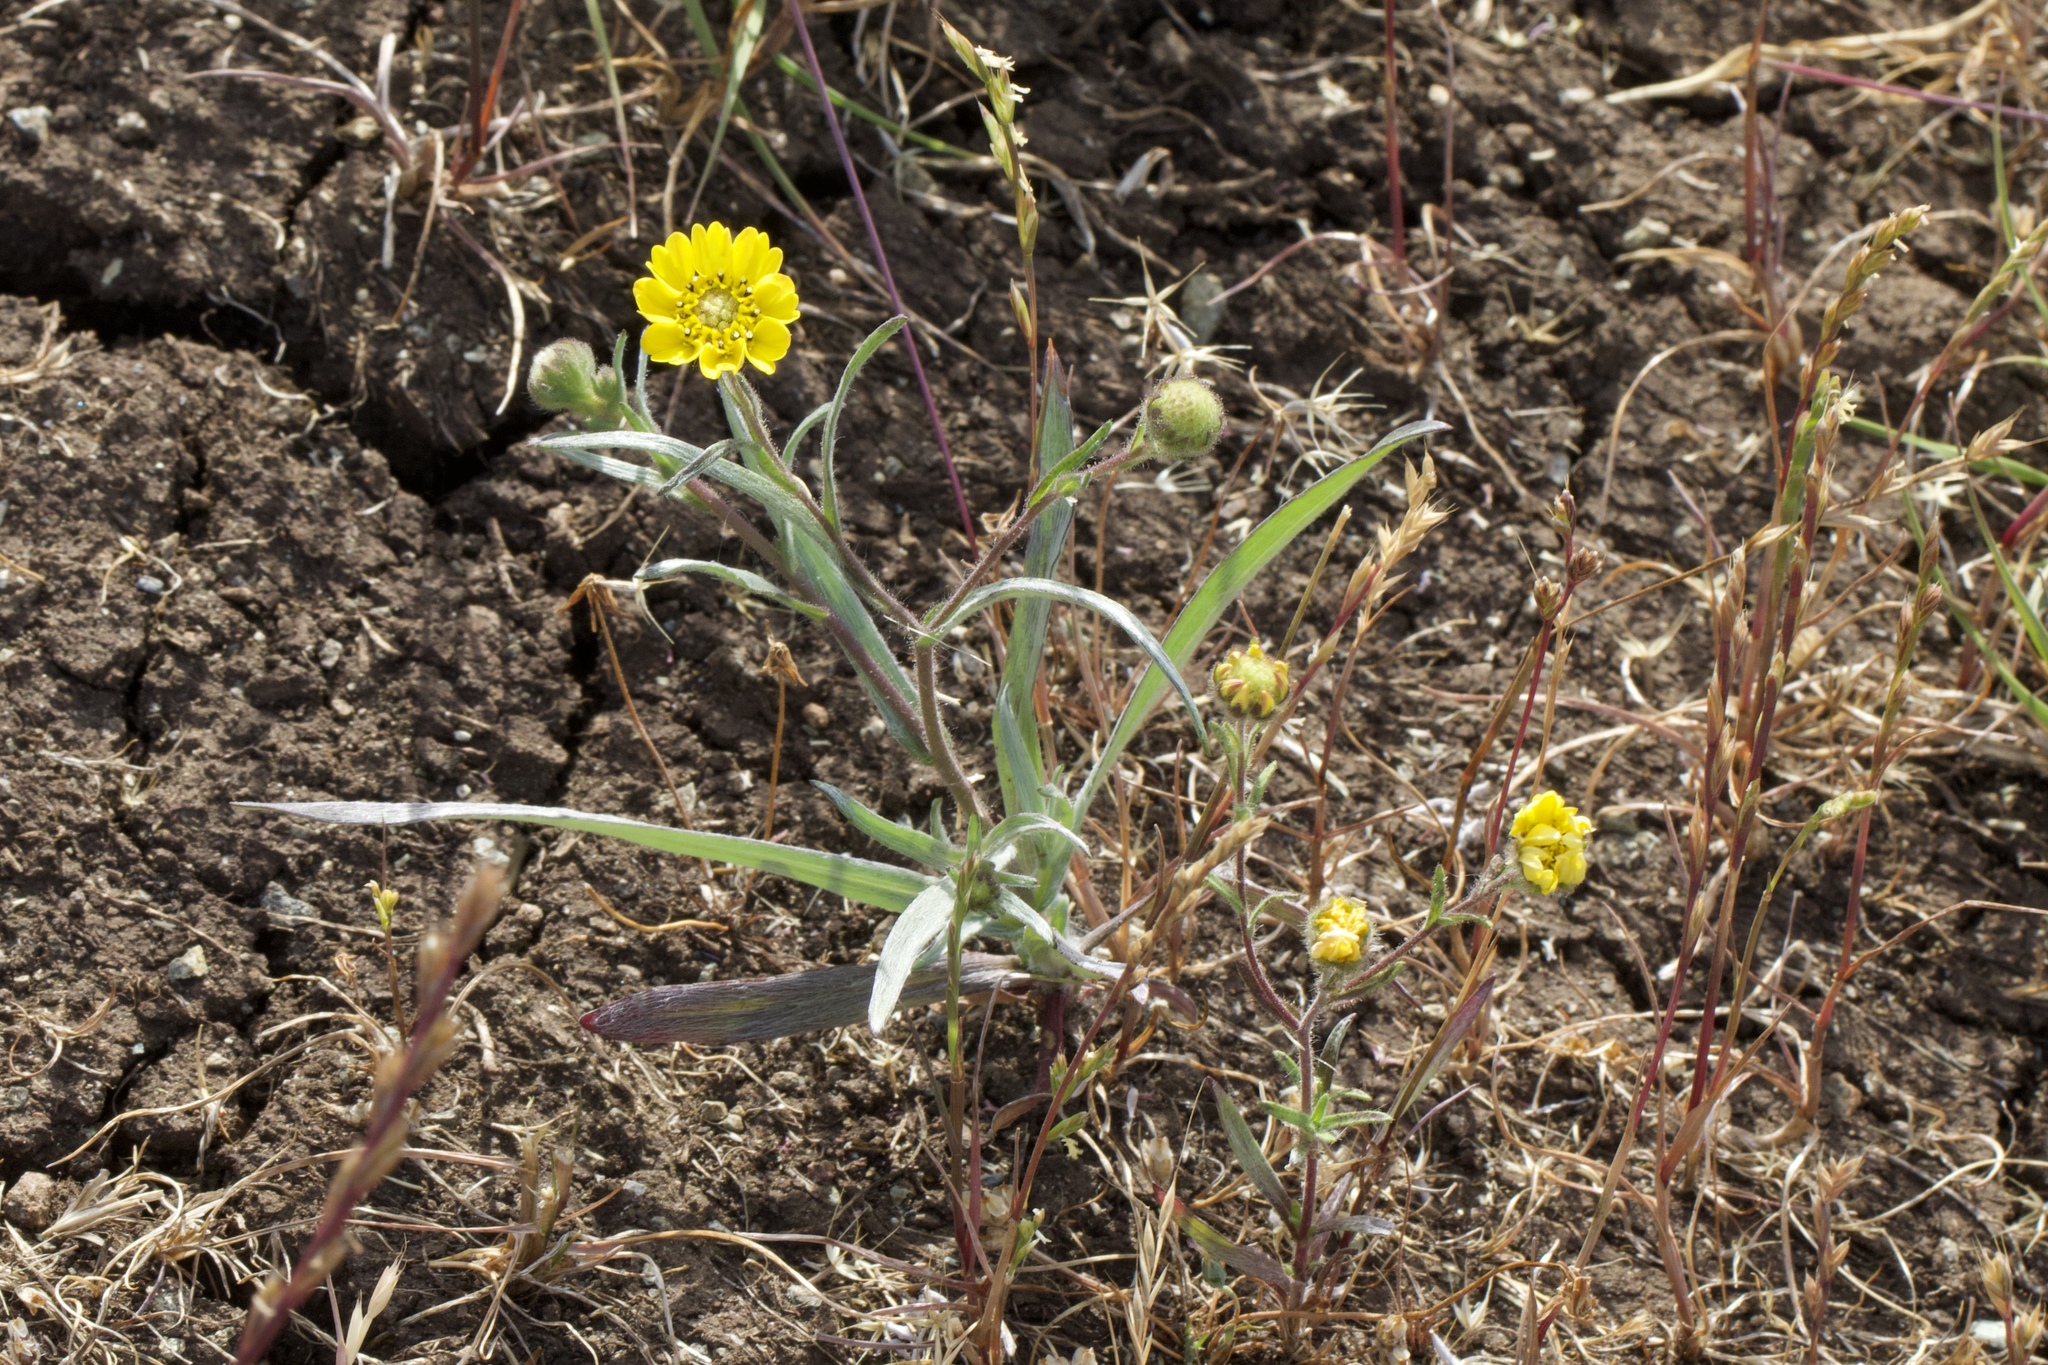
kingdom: Plantae
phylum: Tracheophyta
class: Magnoliopsida
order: Asterales
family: Asteraceae
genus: Hemizonia
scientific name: Hemizonia congesta
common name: Hayfield tarweed
